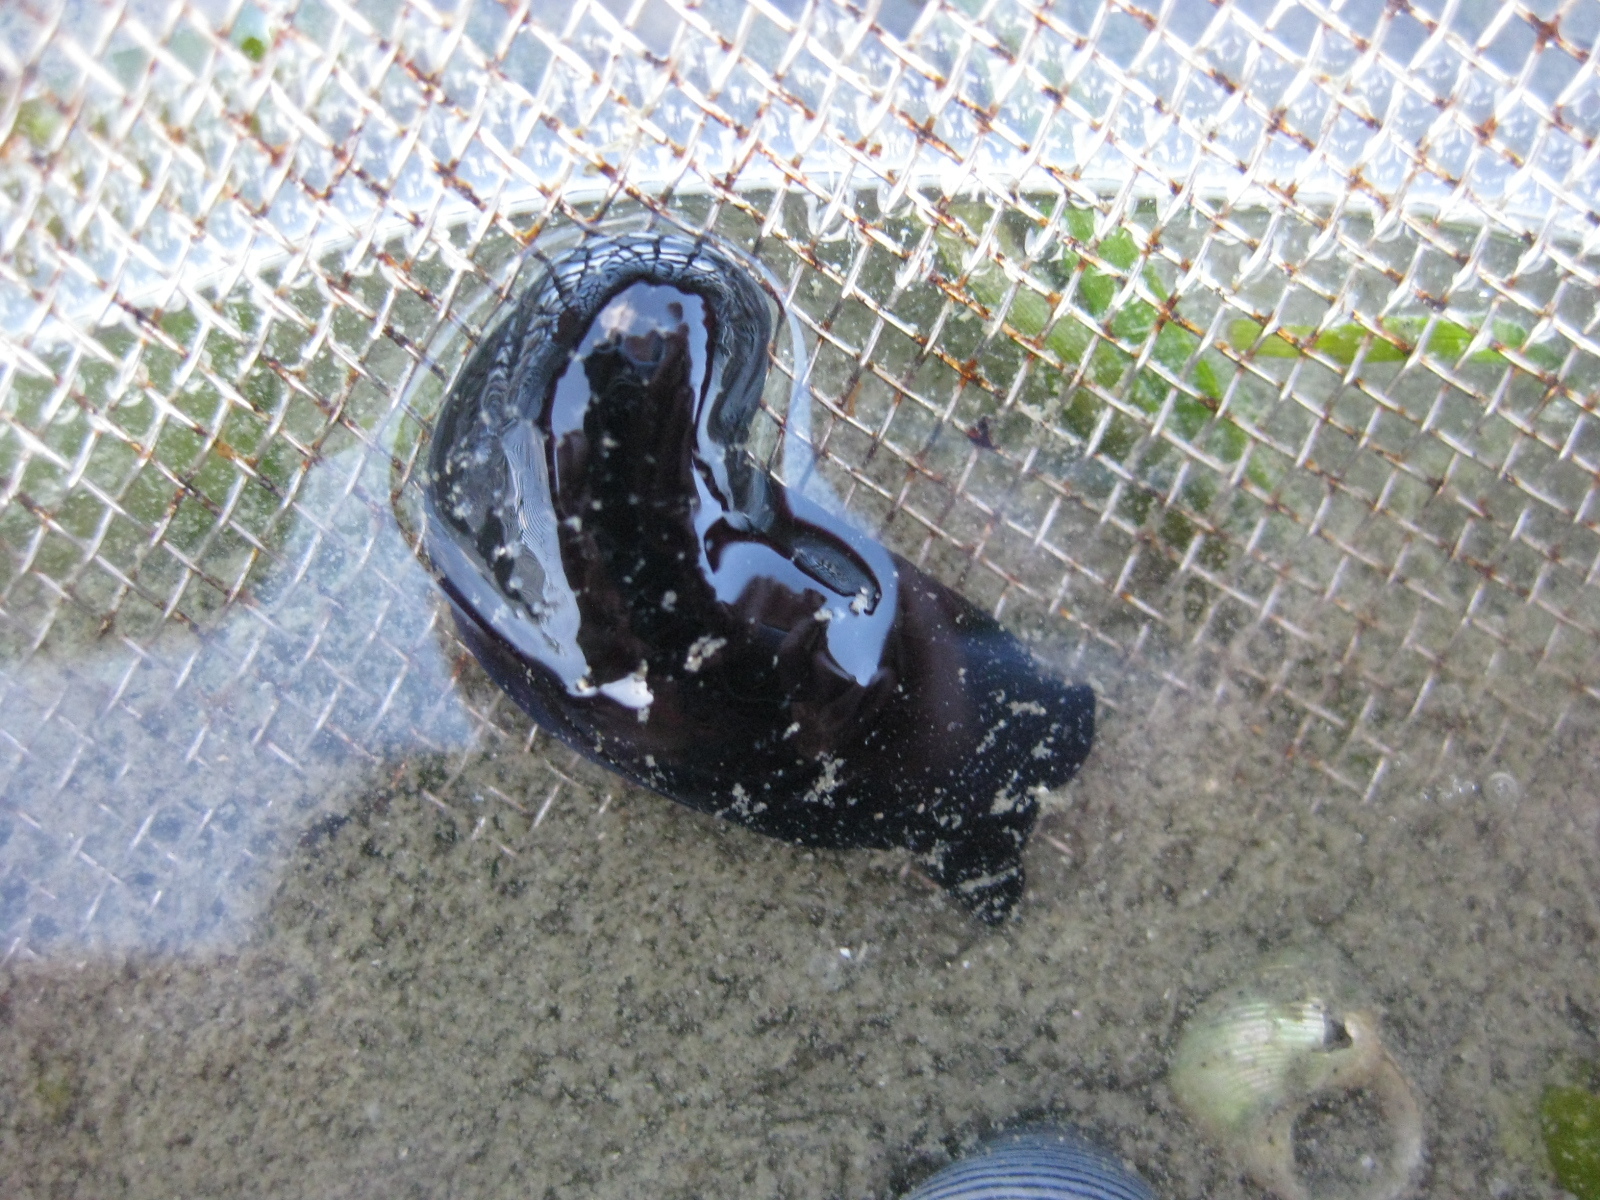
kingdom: Animalia
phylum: Mollusca
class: Gastropoda
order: Cephalaspidea
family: Aglajidae
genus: Melanochlamys
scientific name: Melanochlamys cylindrica
